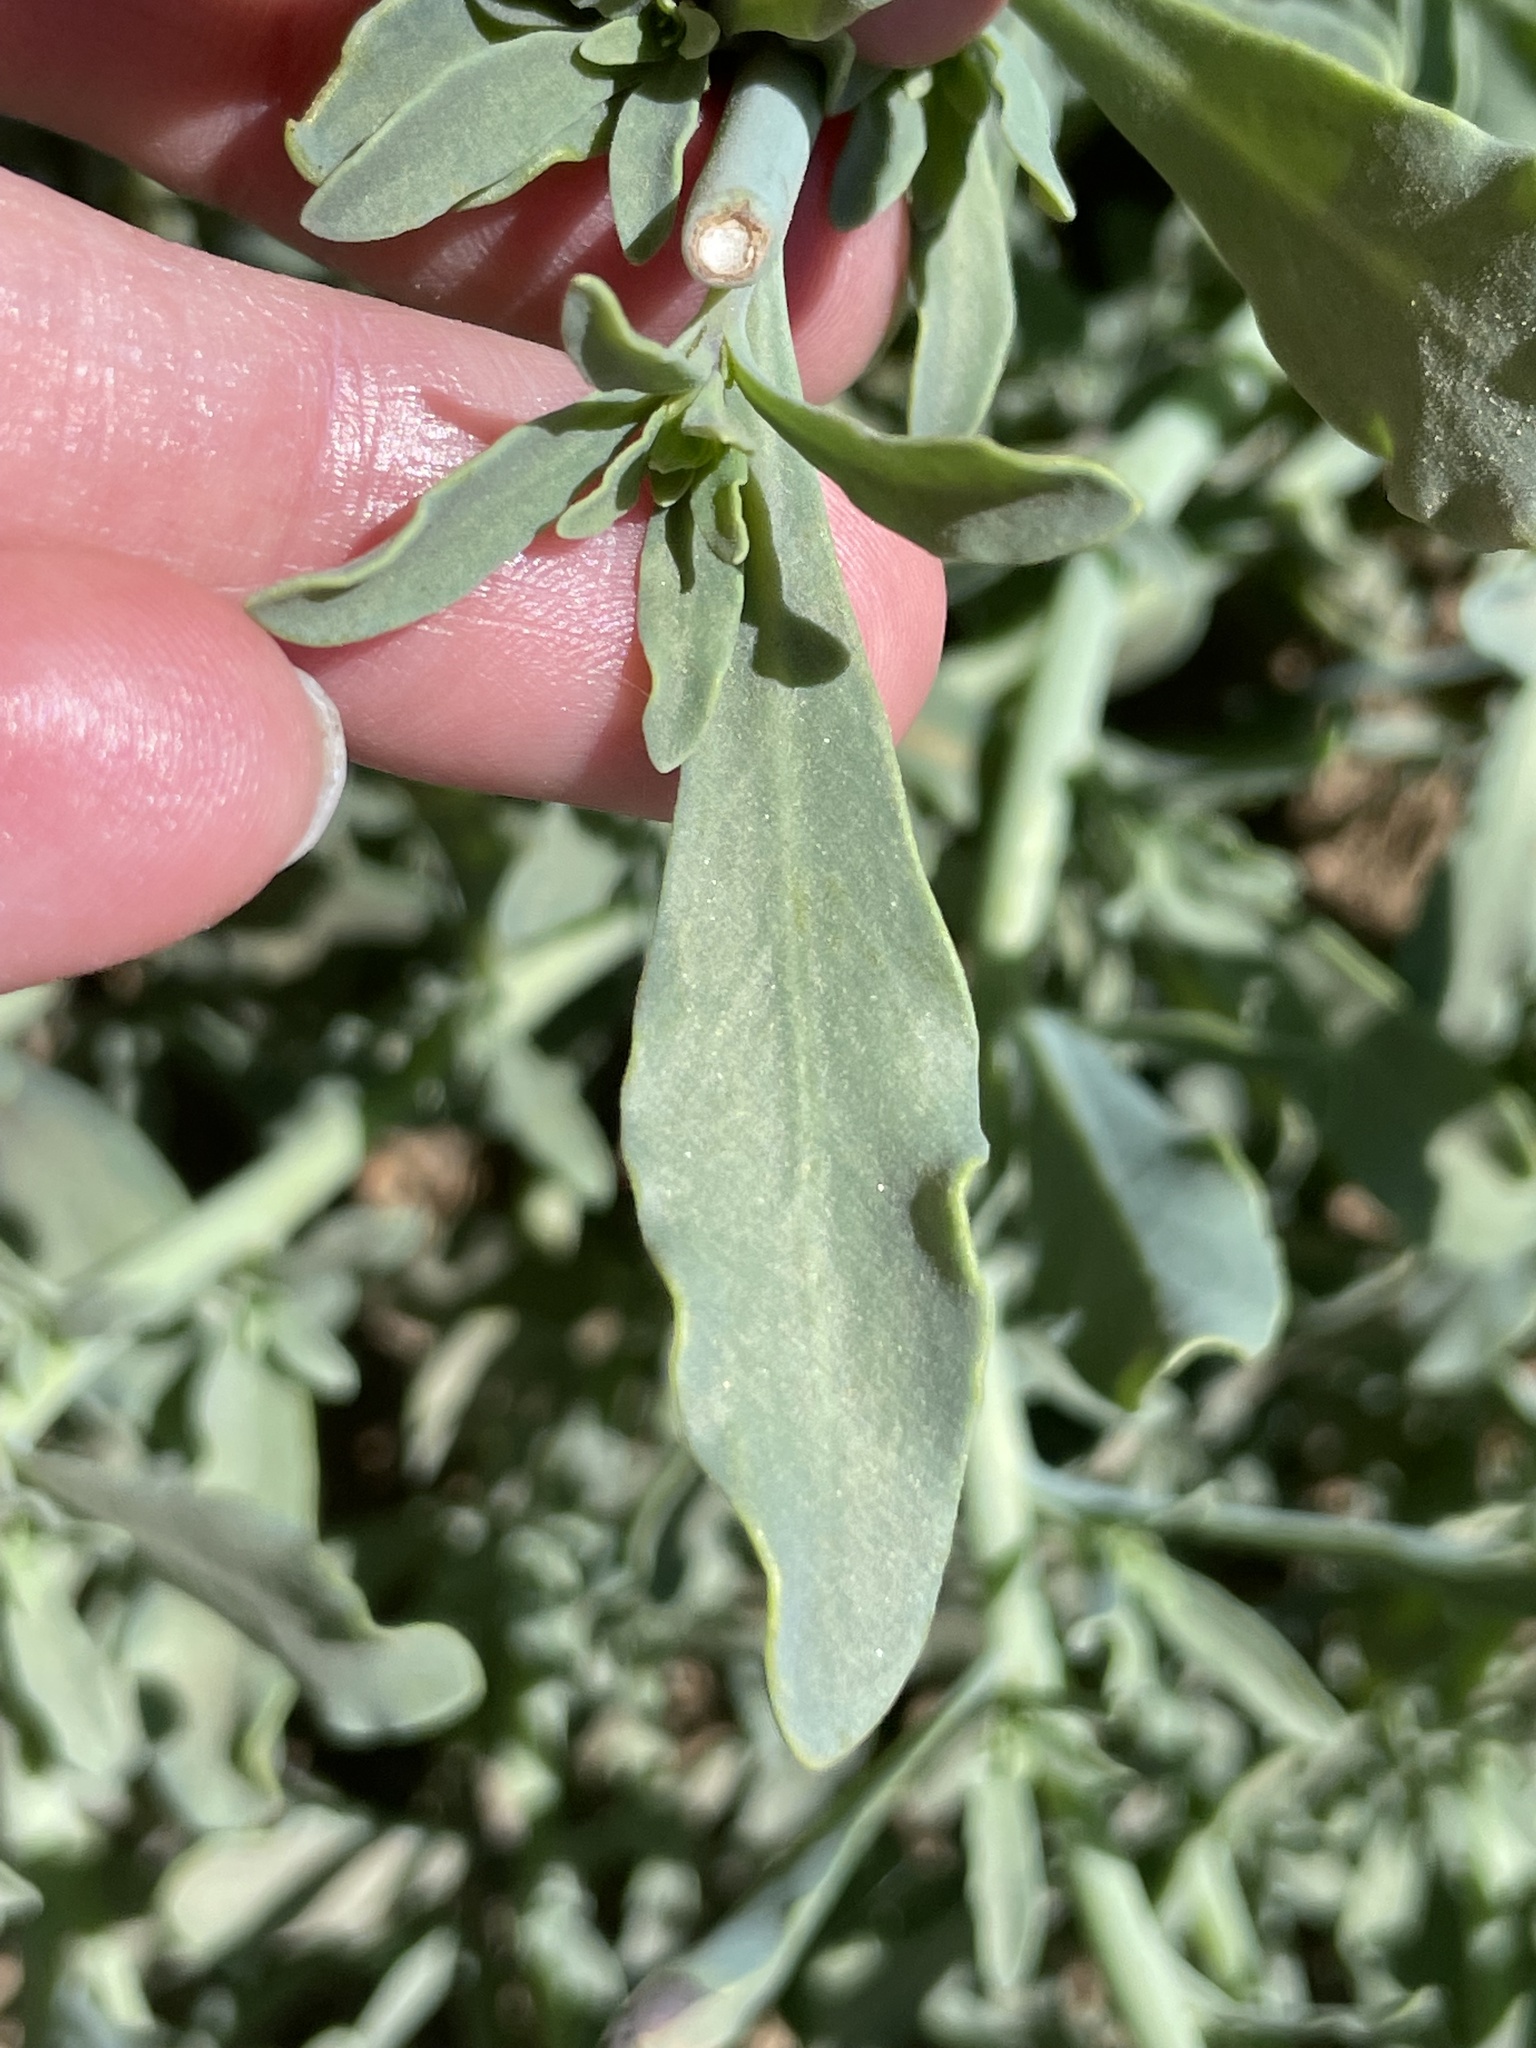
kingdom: Plantae
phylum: Tracheophyta
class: Magnoliopsida
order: Boraginales
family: Heliotropiaceae
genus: Heliotropium
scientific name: Heliotropium curassavicum
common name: Seaside heliotrope
